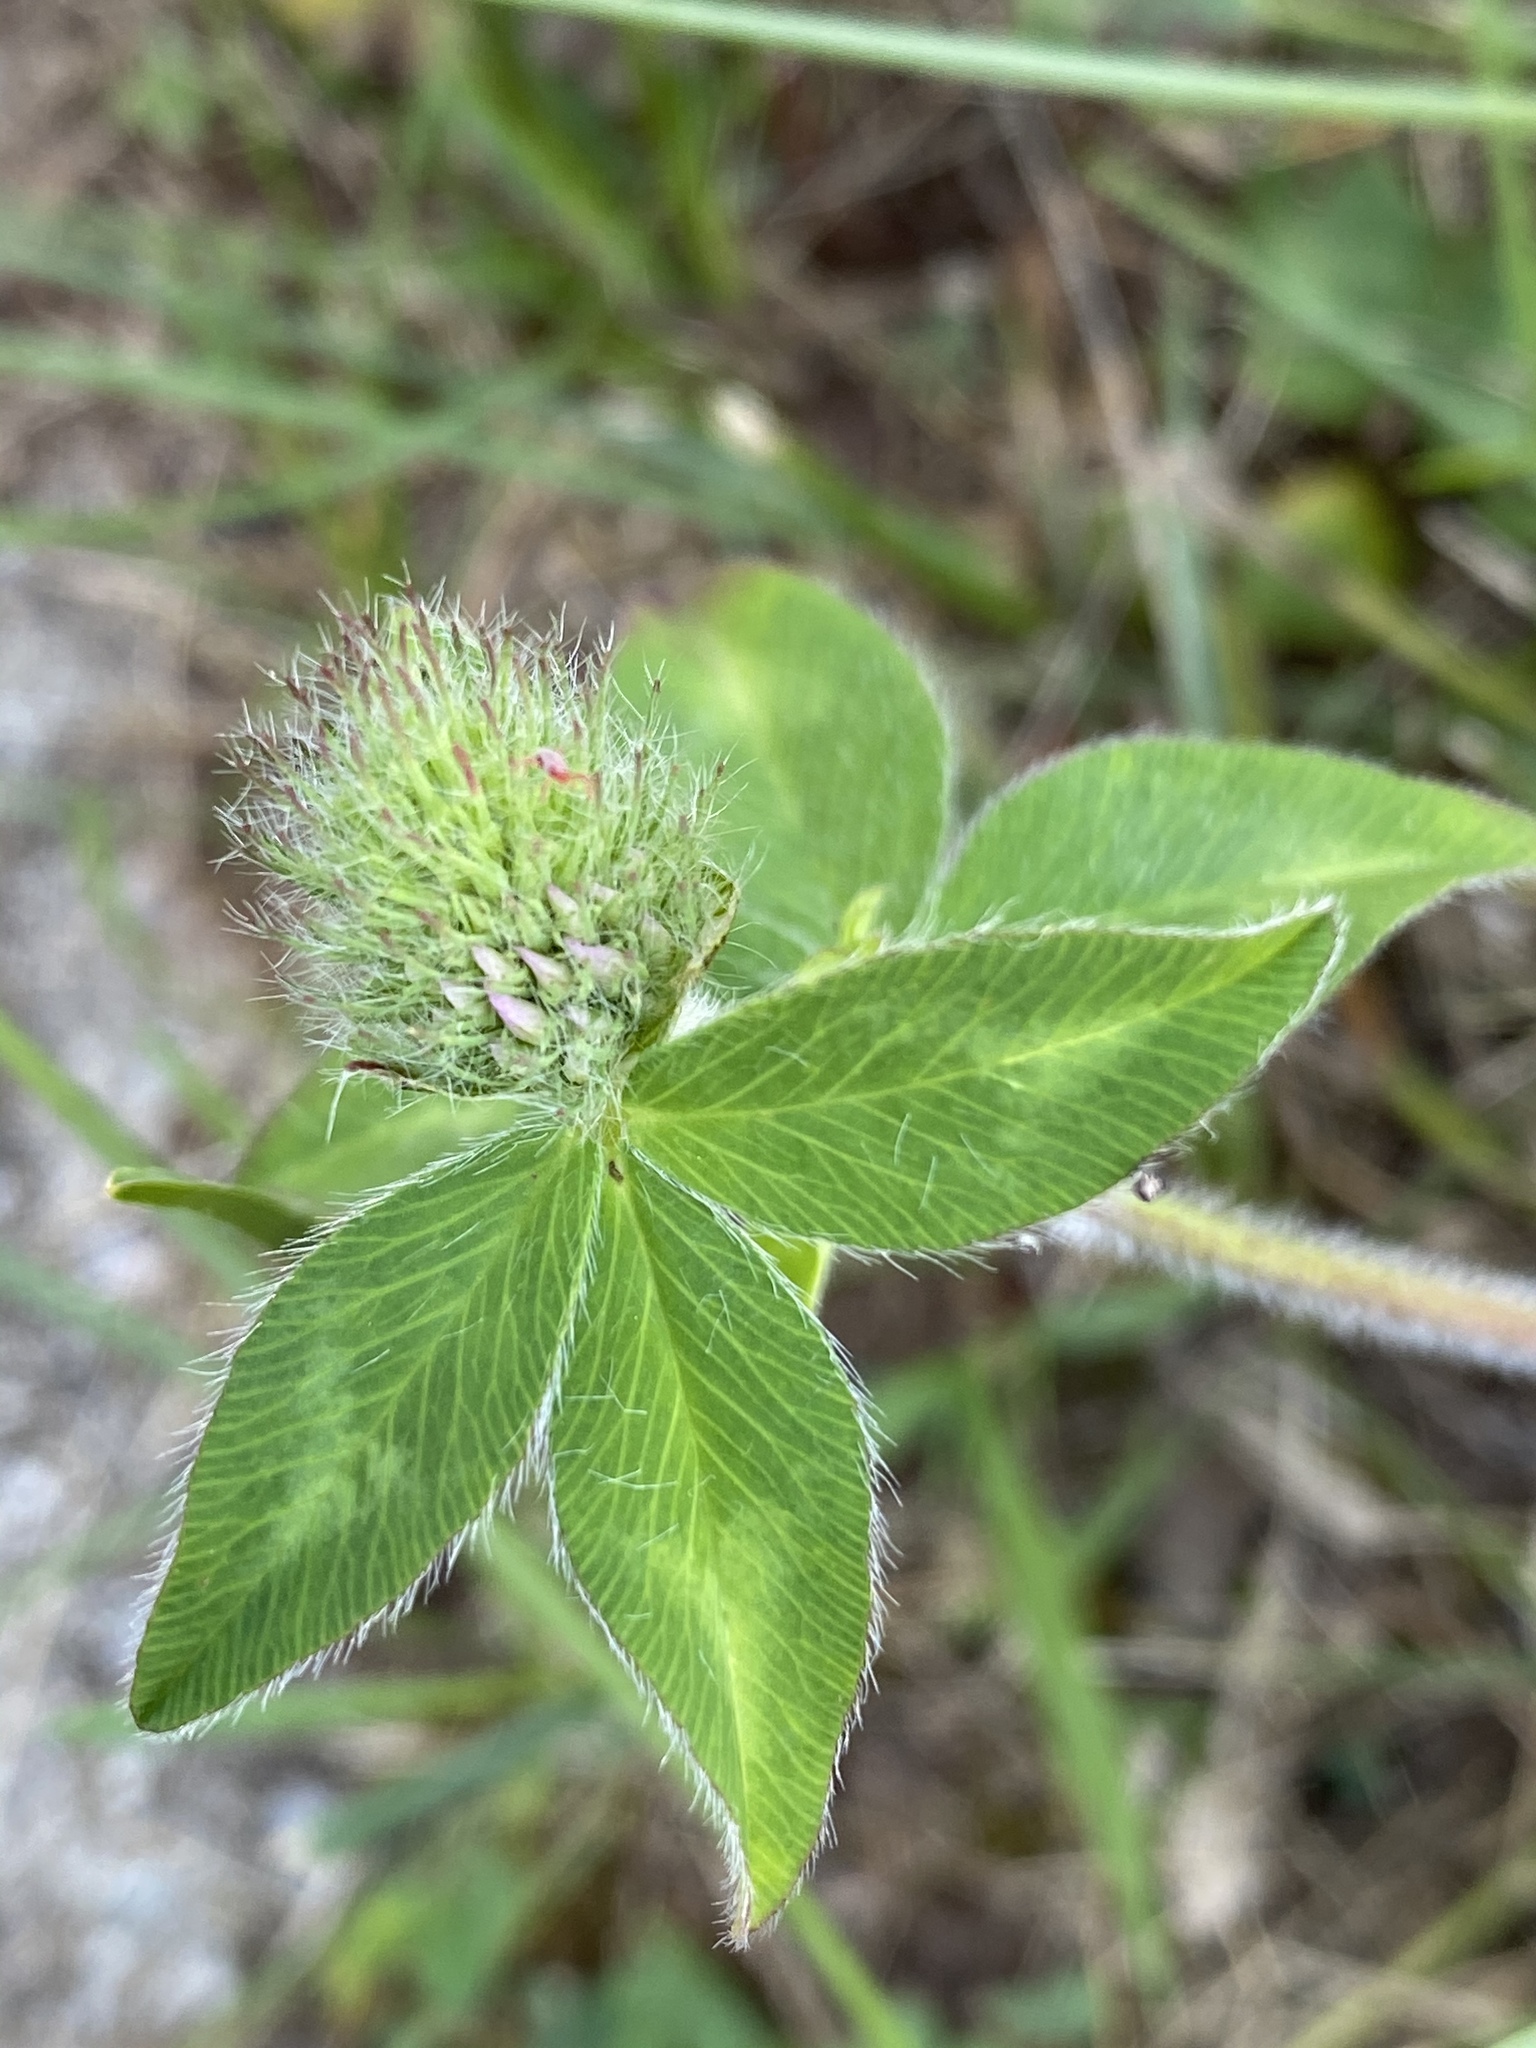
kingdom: Plantae
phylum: Tracheophyta
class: Magnoliopsida
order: Fabales
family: Fabaceae
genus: Trifolium
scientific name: Trifolium pratense
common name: Red clover
